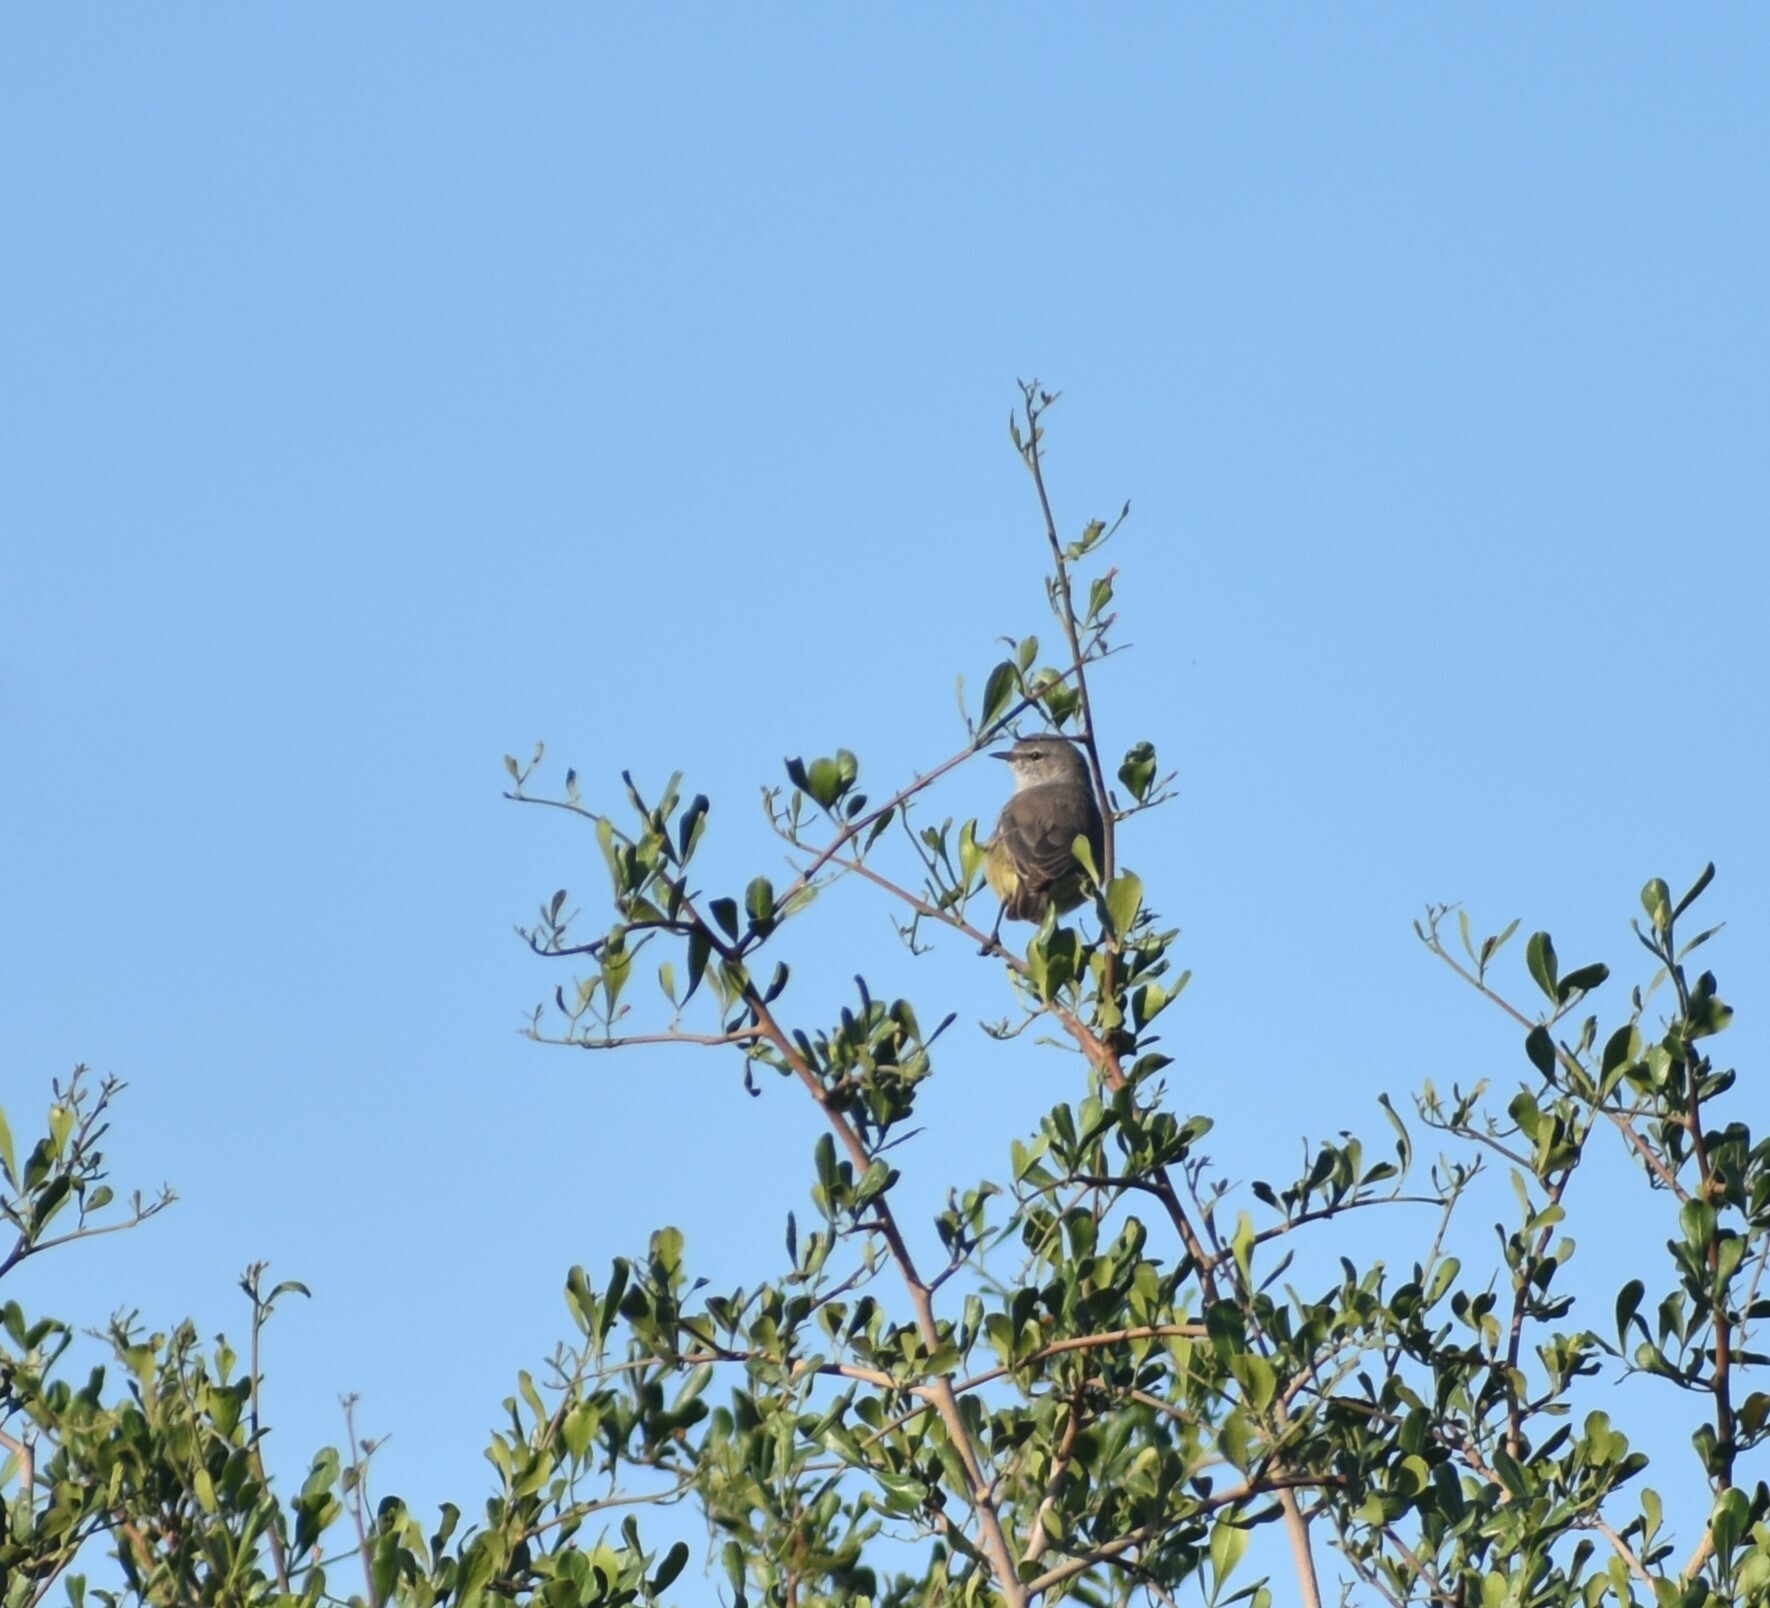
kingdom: Animalia
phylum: Chordata
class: Aves
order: Passeriformes
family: Cisticolidae
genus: Eremomela
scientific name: Eremomela icteropygialis
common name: Yellow-bellied eremomela
